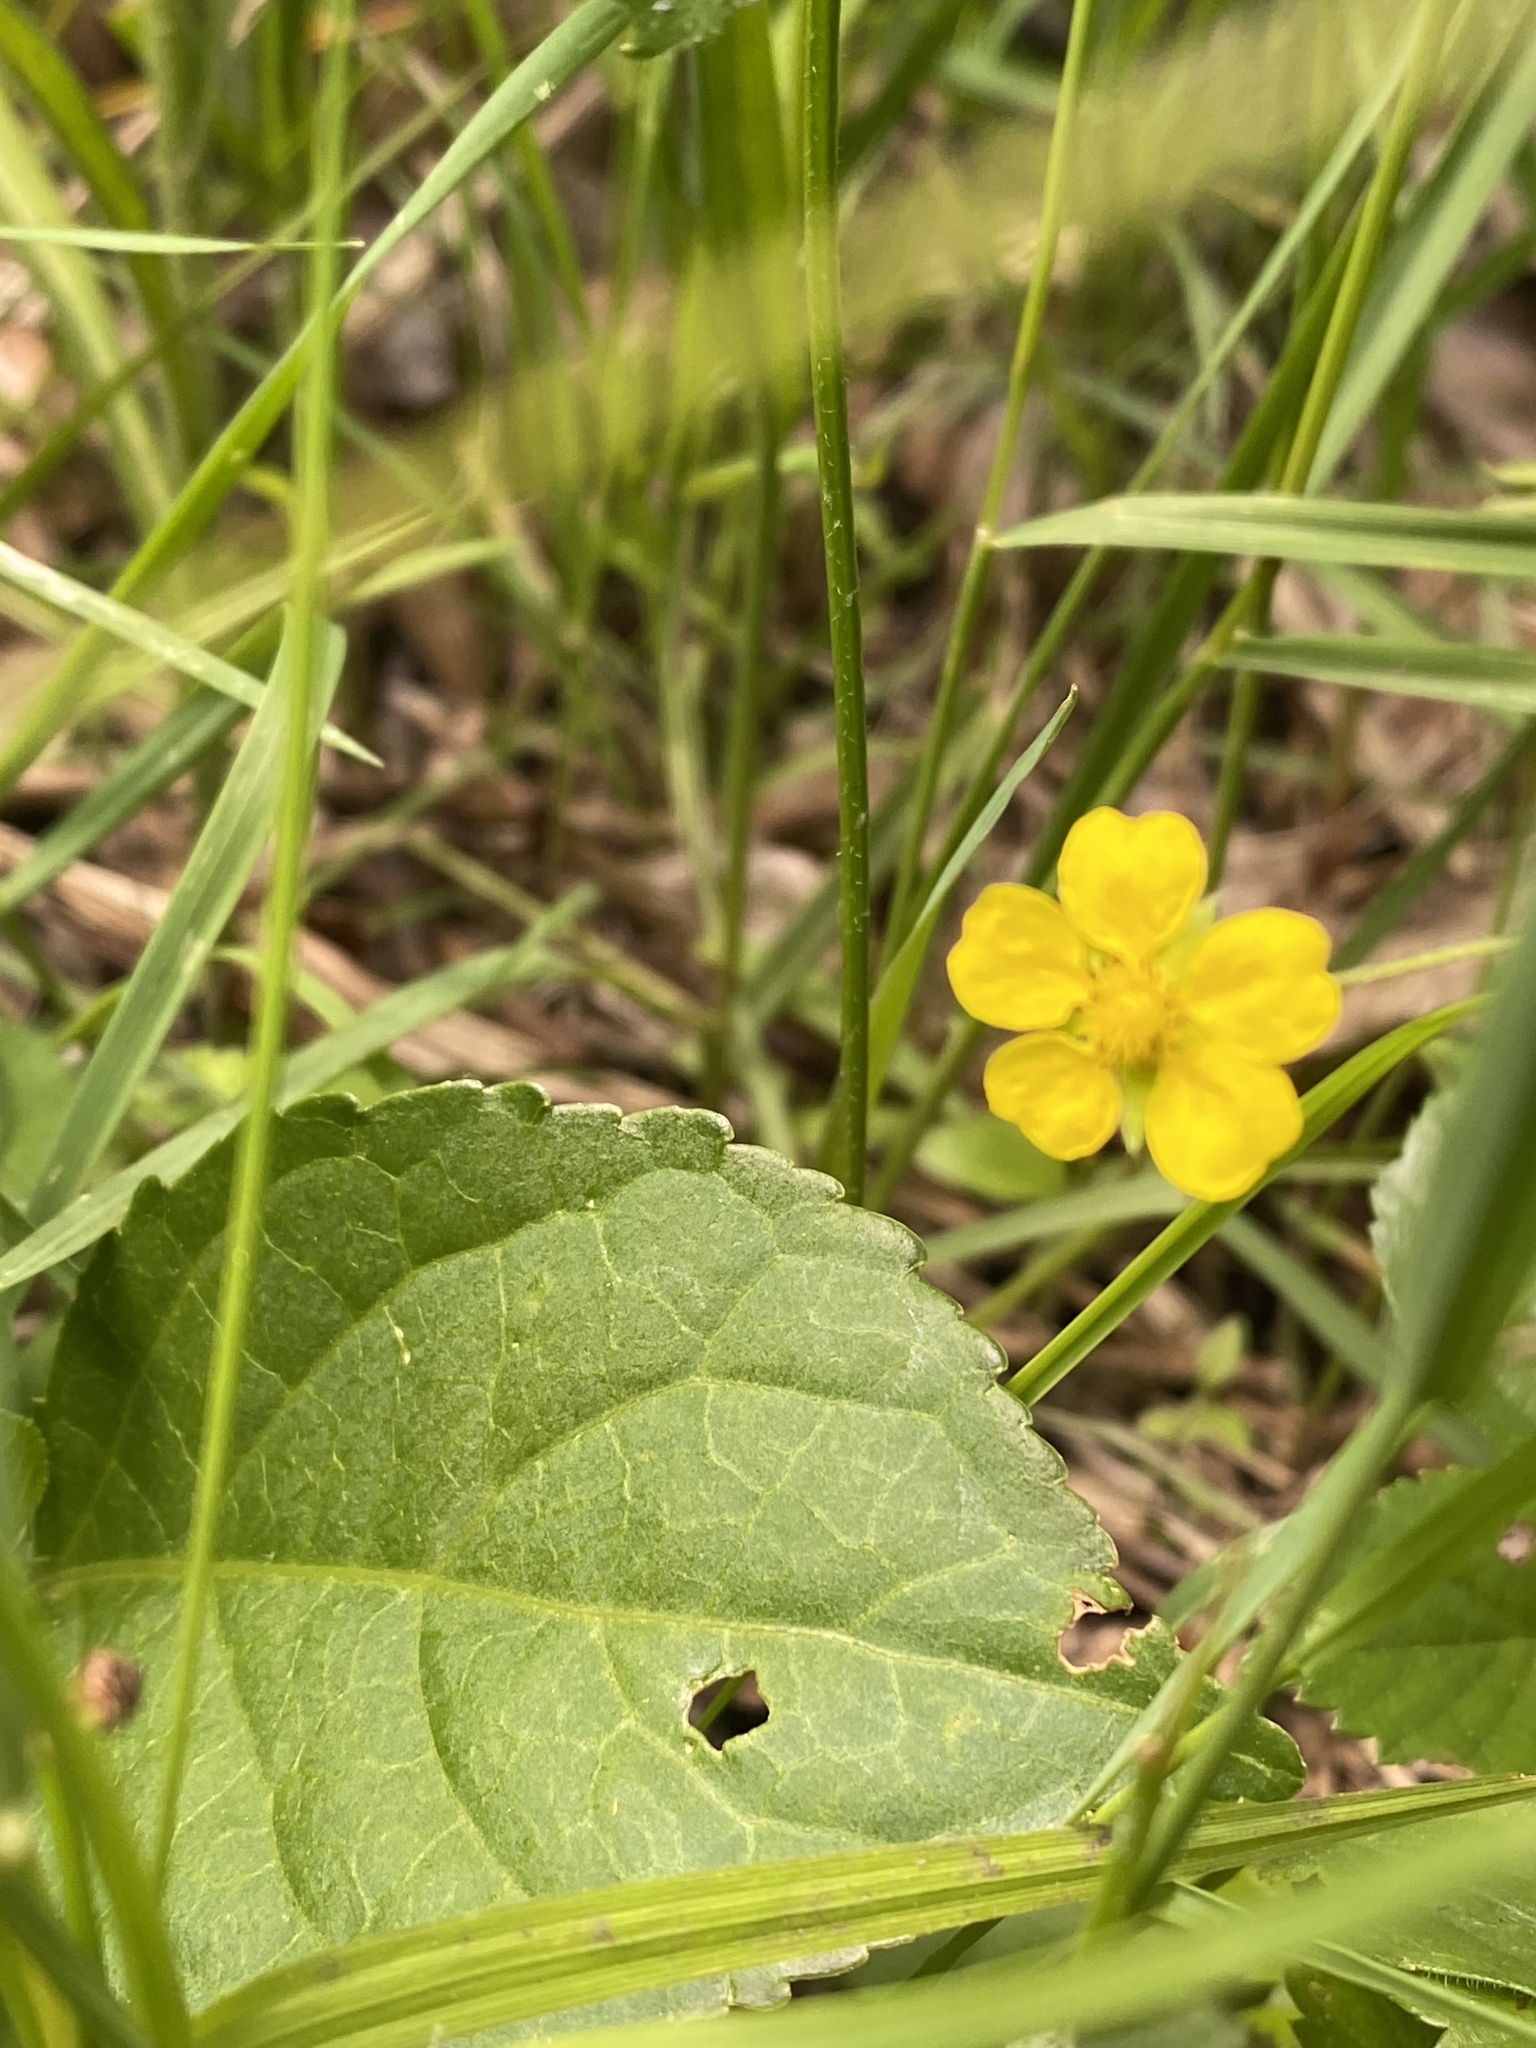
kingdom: Plantae
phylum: Tracheophyta
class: Magnoliopsida
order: Rosales
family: Rosaceae
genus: Potentilla
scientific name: Potentilla simplex
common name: Old field cinquefoil
